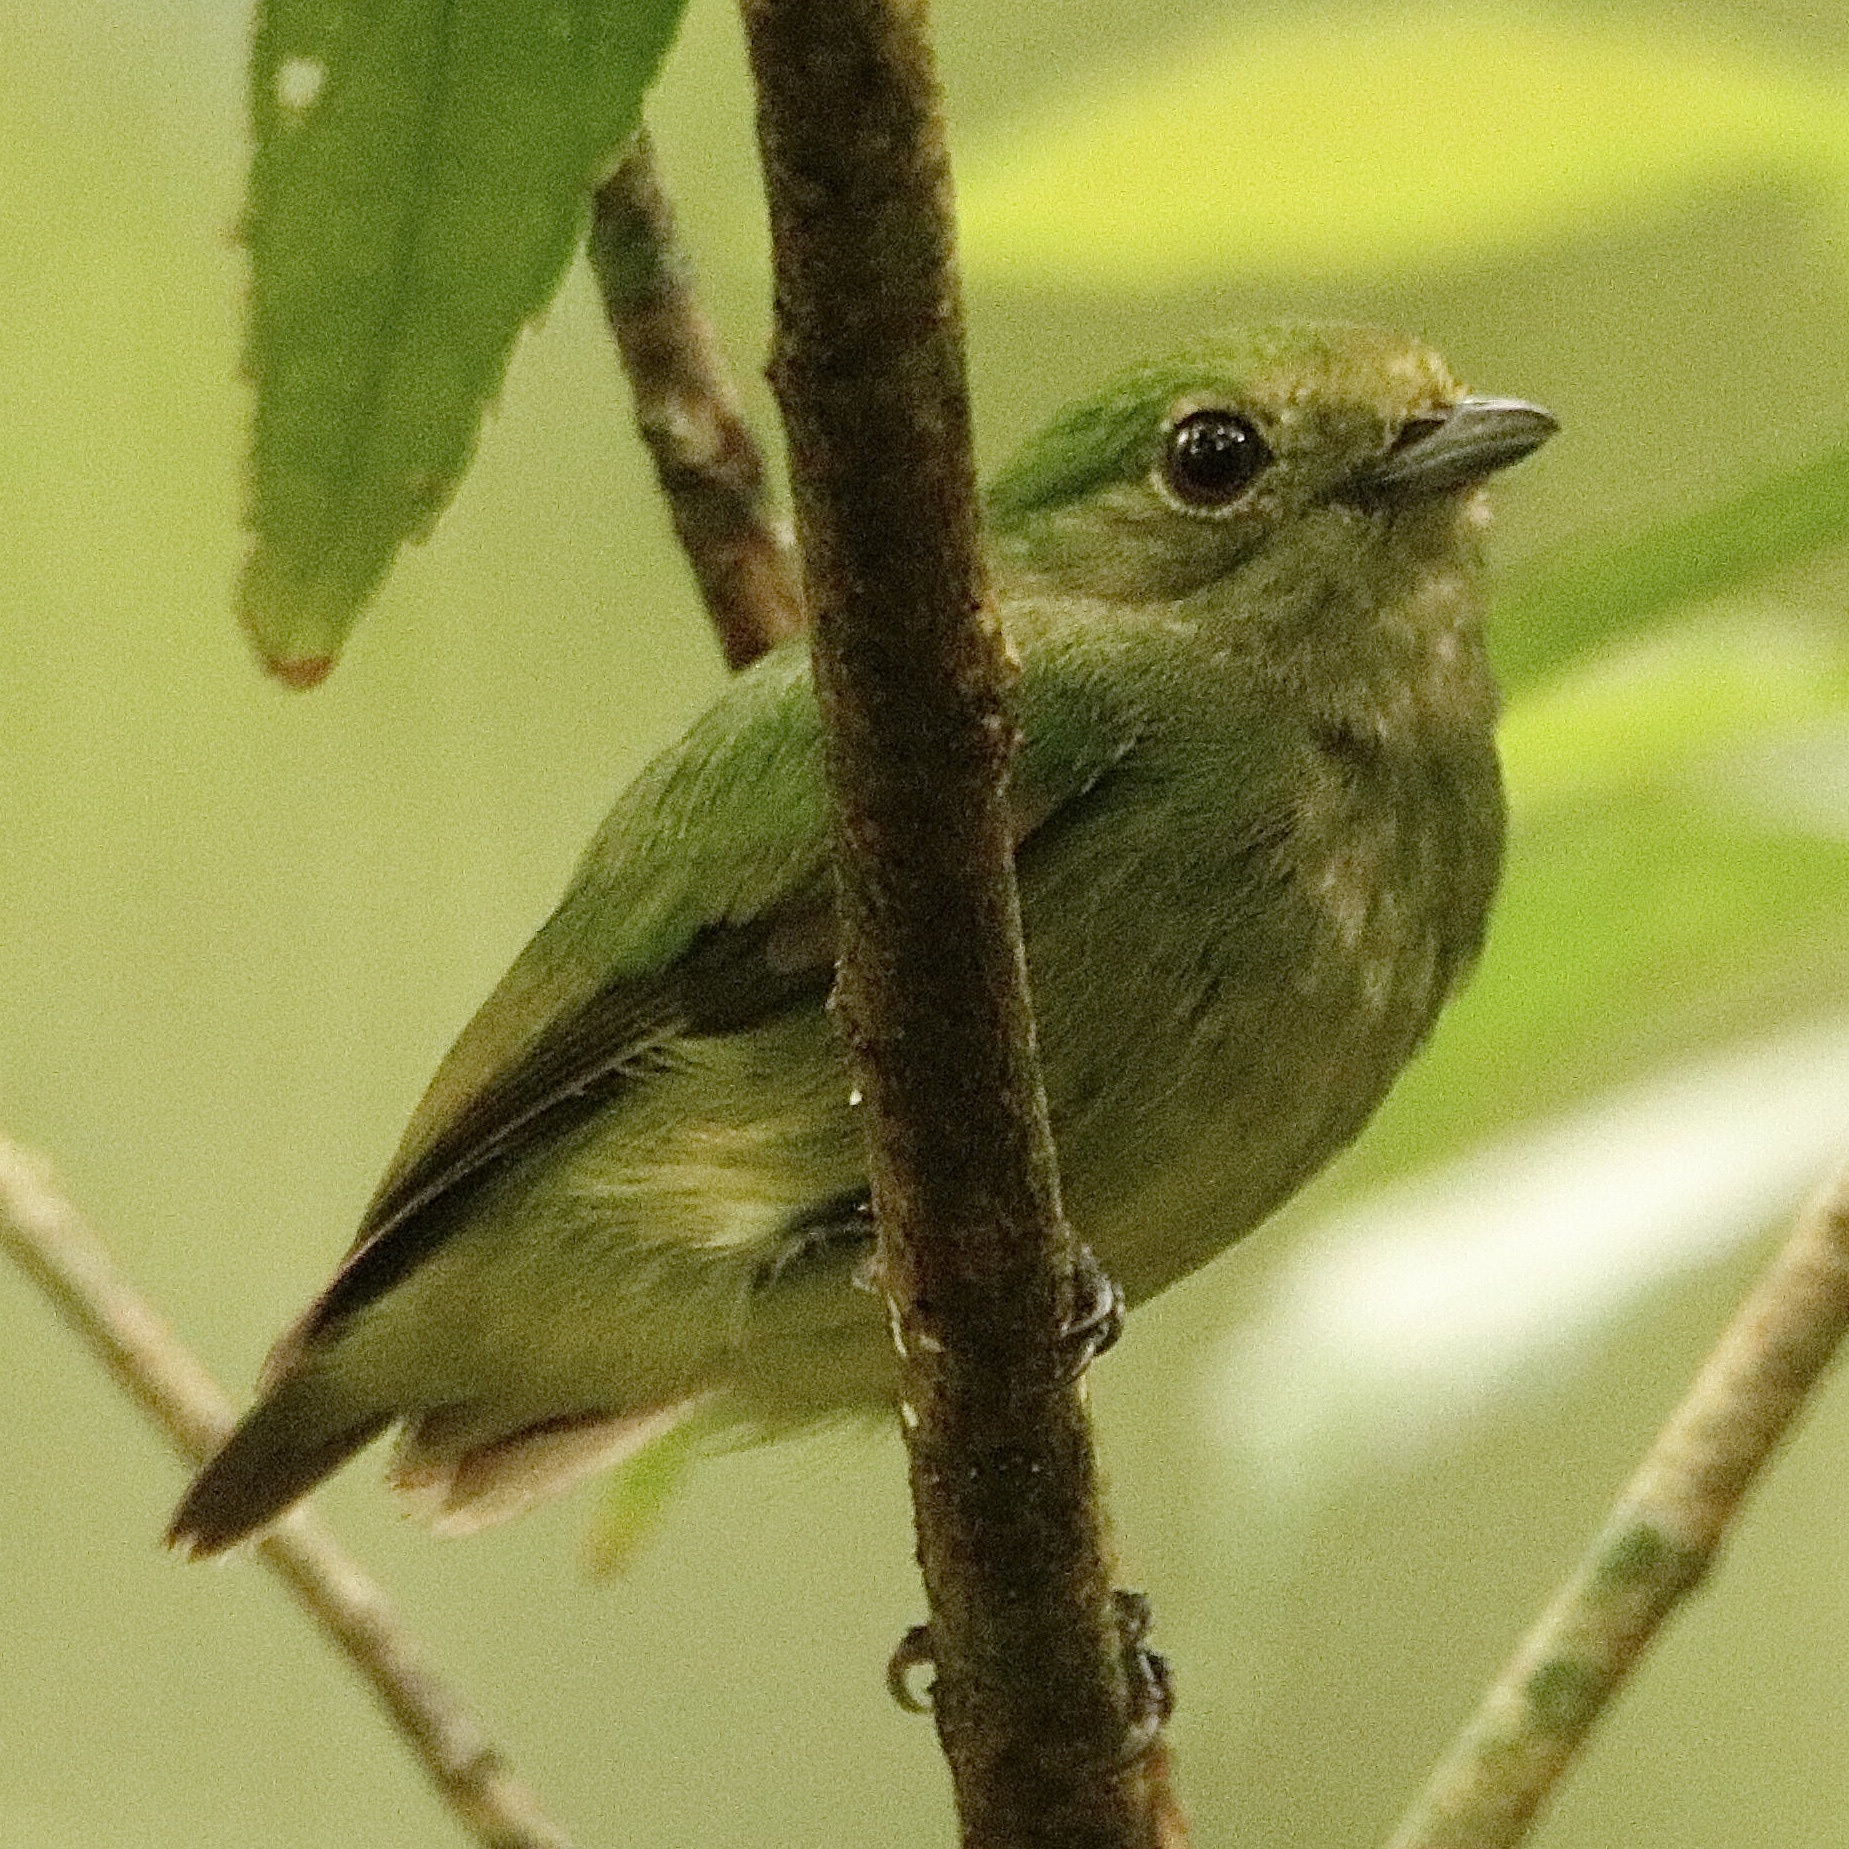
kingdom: Animalia
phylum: Chordata
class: Aves
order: Passeriformes
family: Pipridae
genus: Lepidothrix
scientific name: Lepidothrix coronata
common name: Blue-crowned manakin
